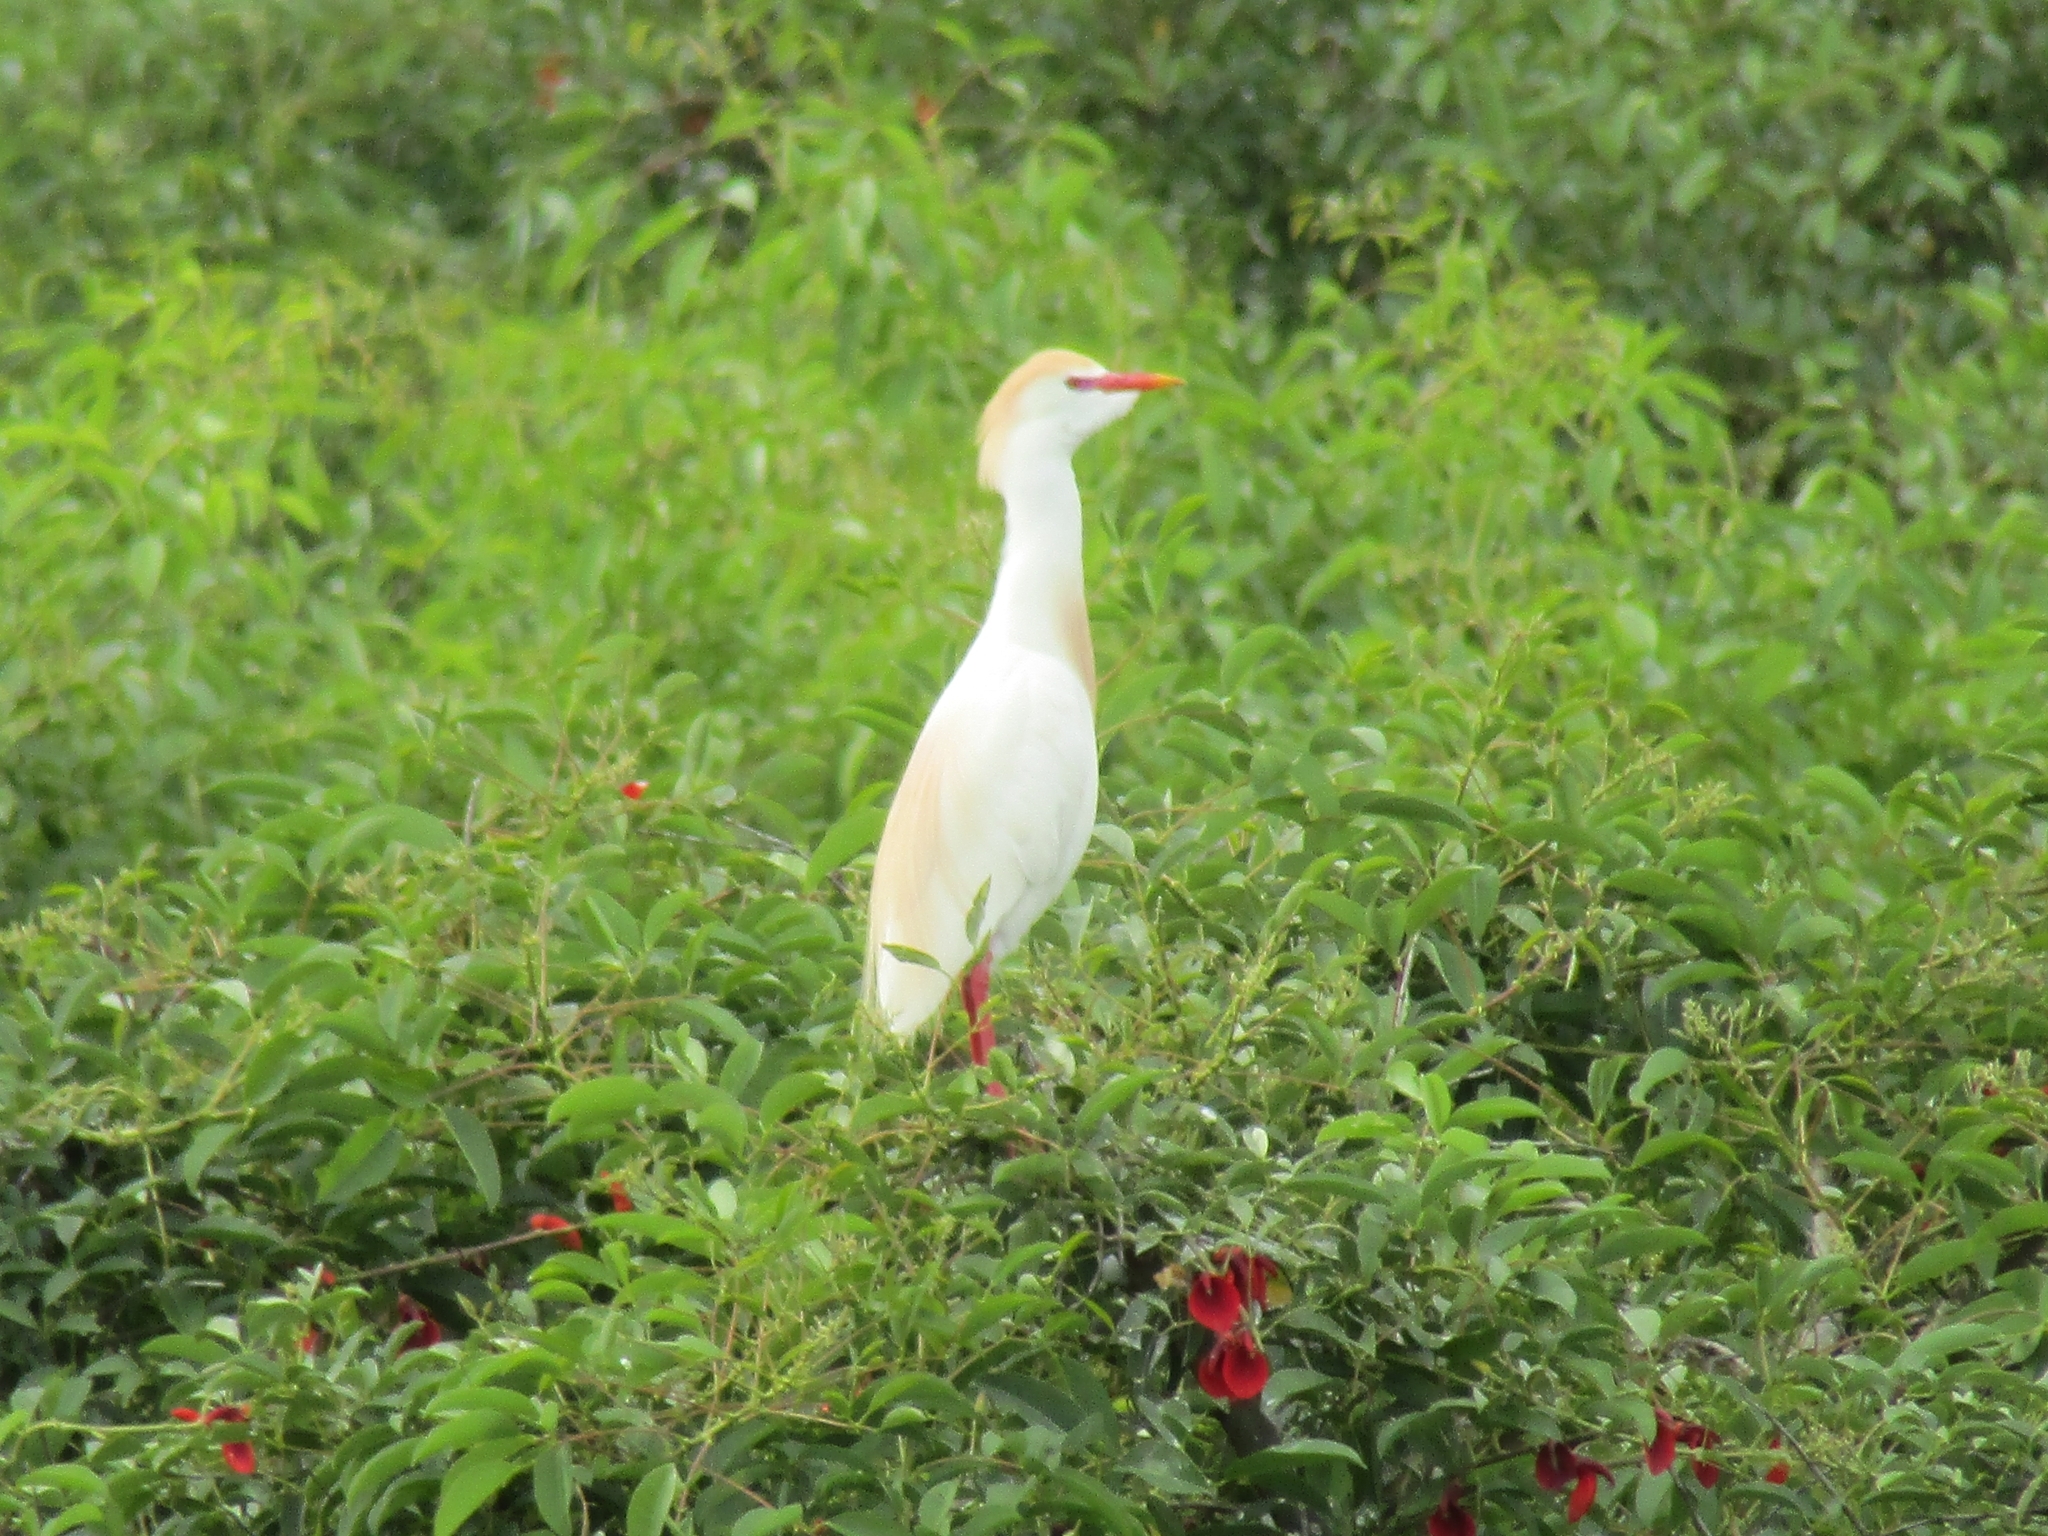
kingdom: Animalia
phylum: Chordata
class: Aves
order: Pelecaniformes
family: Ardeidae
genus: Bubulcus
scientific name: Bubulcus ibis
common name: Cattle egret
